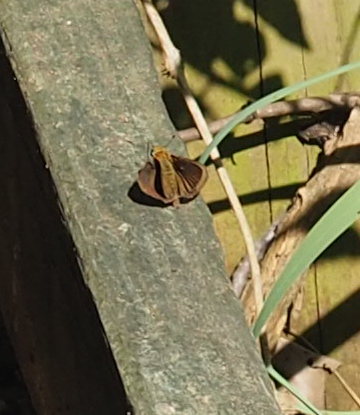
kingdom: Animalia
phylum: Arthropoda
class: Insecta
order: Lepidoptera
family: Hesperiidae
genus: Euphyes
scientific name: Euphyes vestris
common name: Dun skipper
